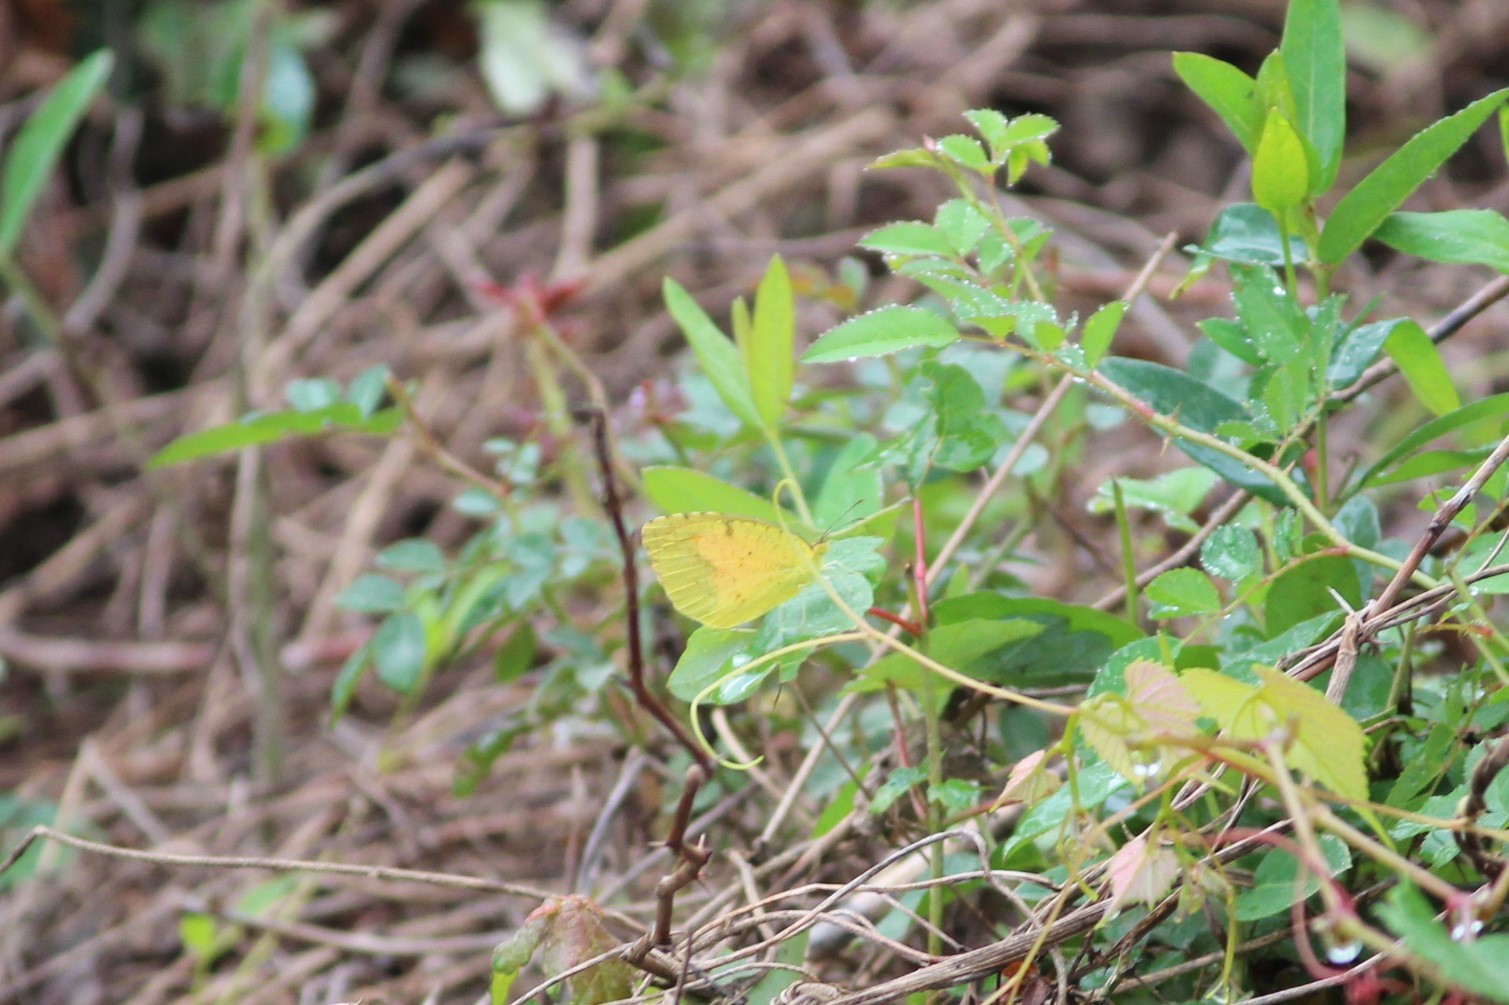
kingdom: Animalia
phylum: Arthropoda
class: Insecta
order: Lepidoptera
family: Pieridae
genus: Abaeis
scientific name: Abaeis nicippe
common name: Sleepy orange
